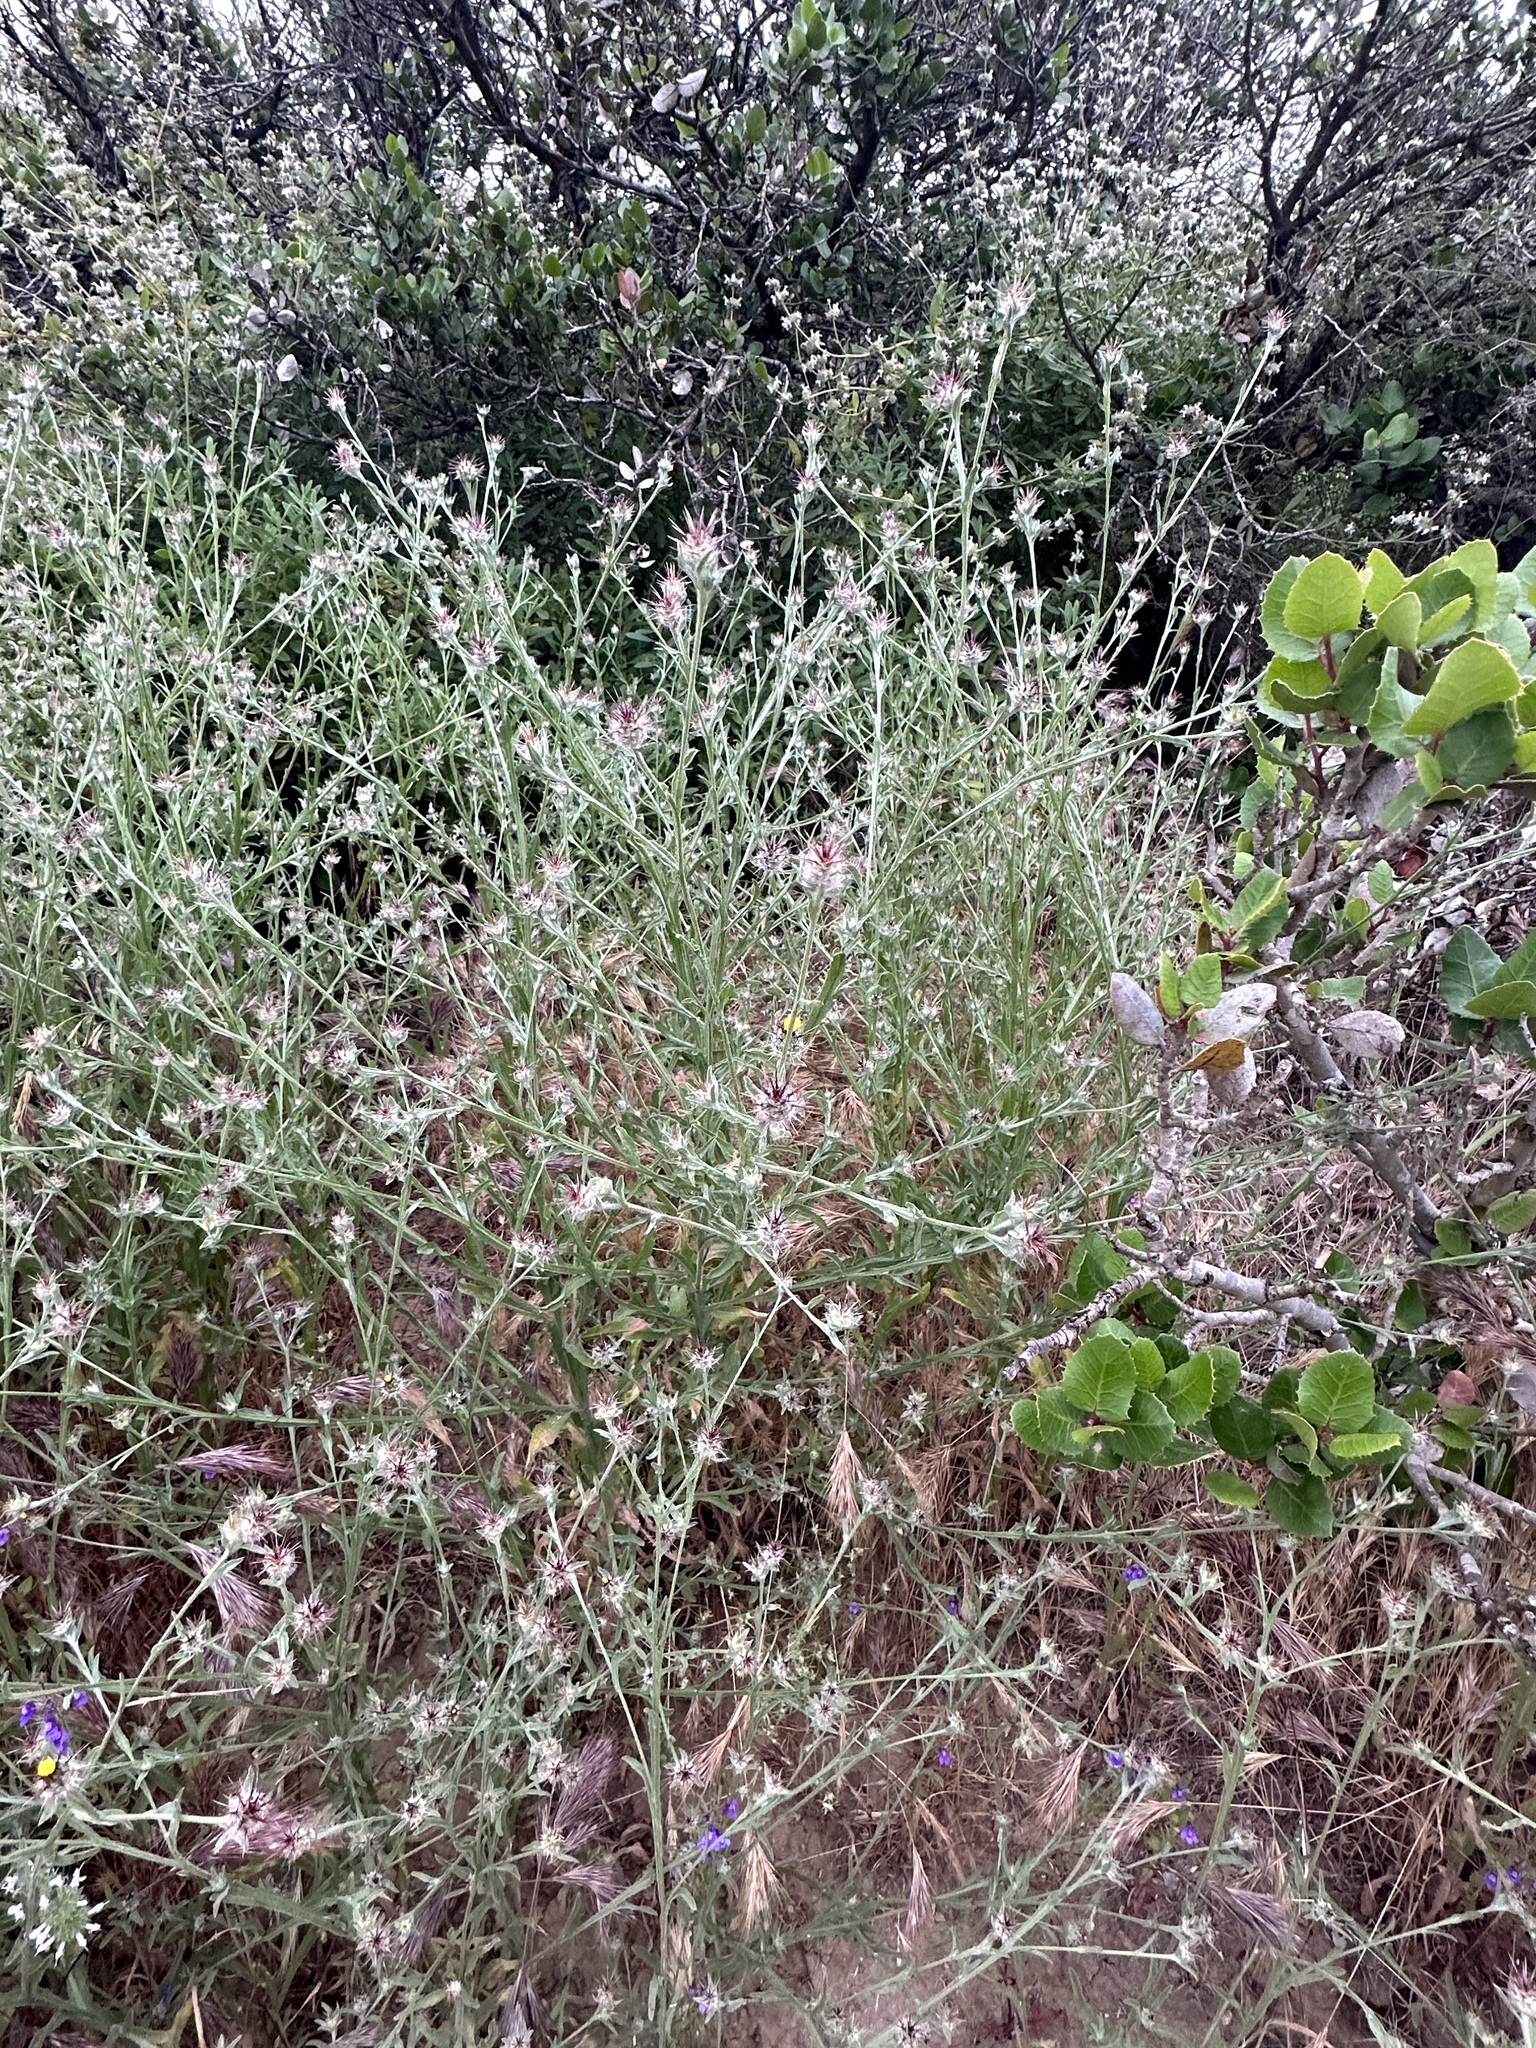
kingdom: Plantae
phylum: Tracheophyta
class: Magnoliopsida
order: Asterales
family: Asteraceae
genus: Centaurea
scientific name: Centaurea melitensis
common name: Maltese star-thistle
